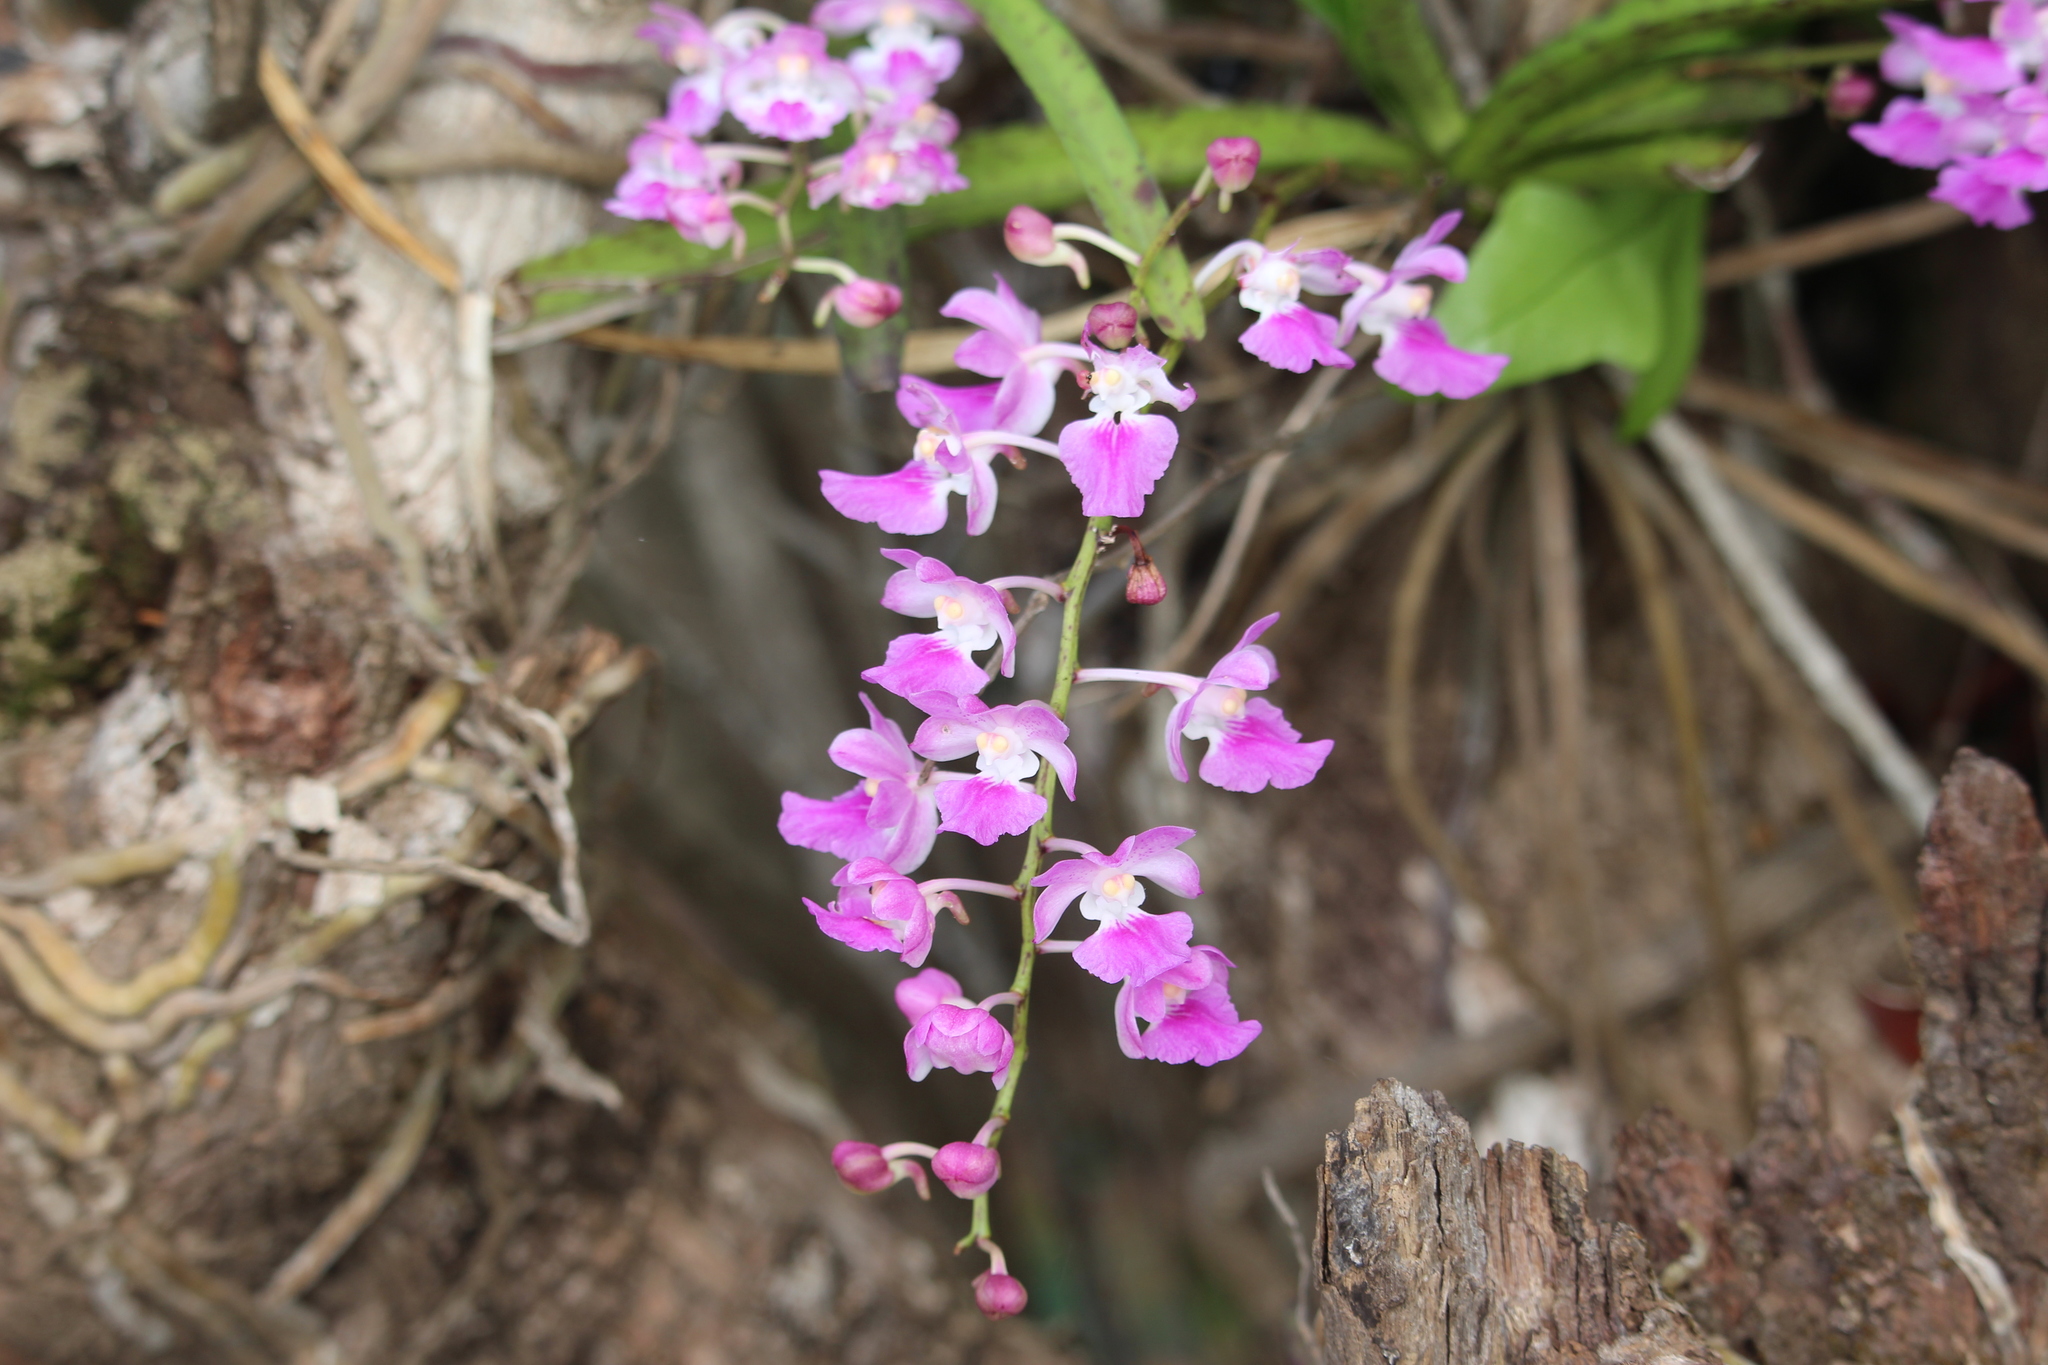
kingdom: Plantae
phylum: Tracheophyta
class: Liliopsida
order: Asparagales
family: Orchidaceae
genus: Aerides
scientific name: Aerides maculosa
